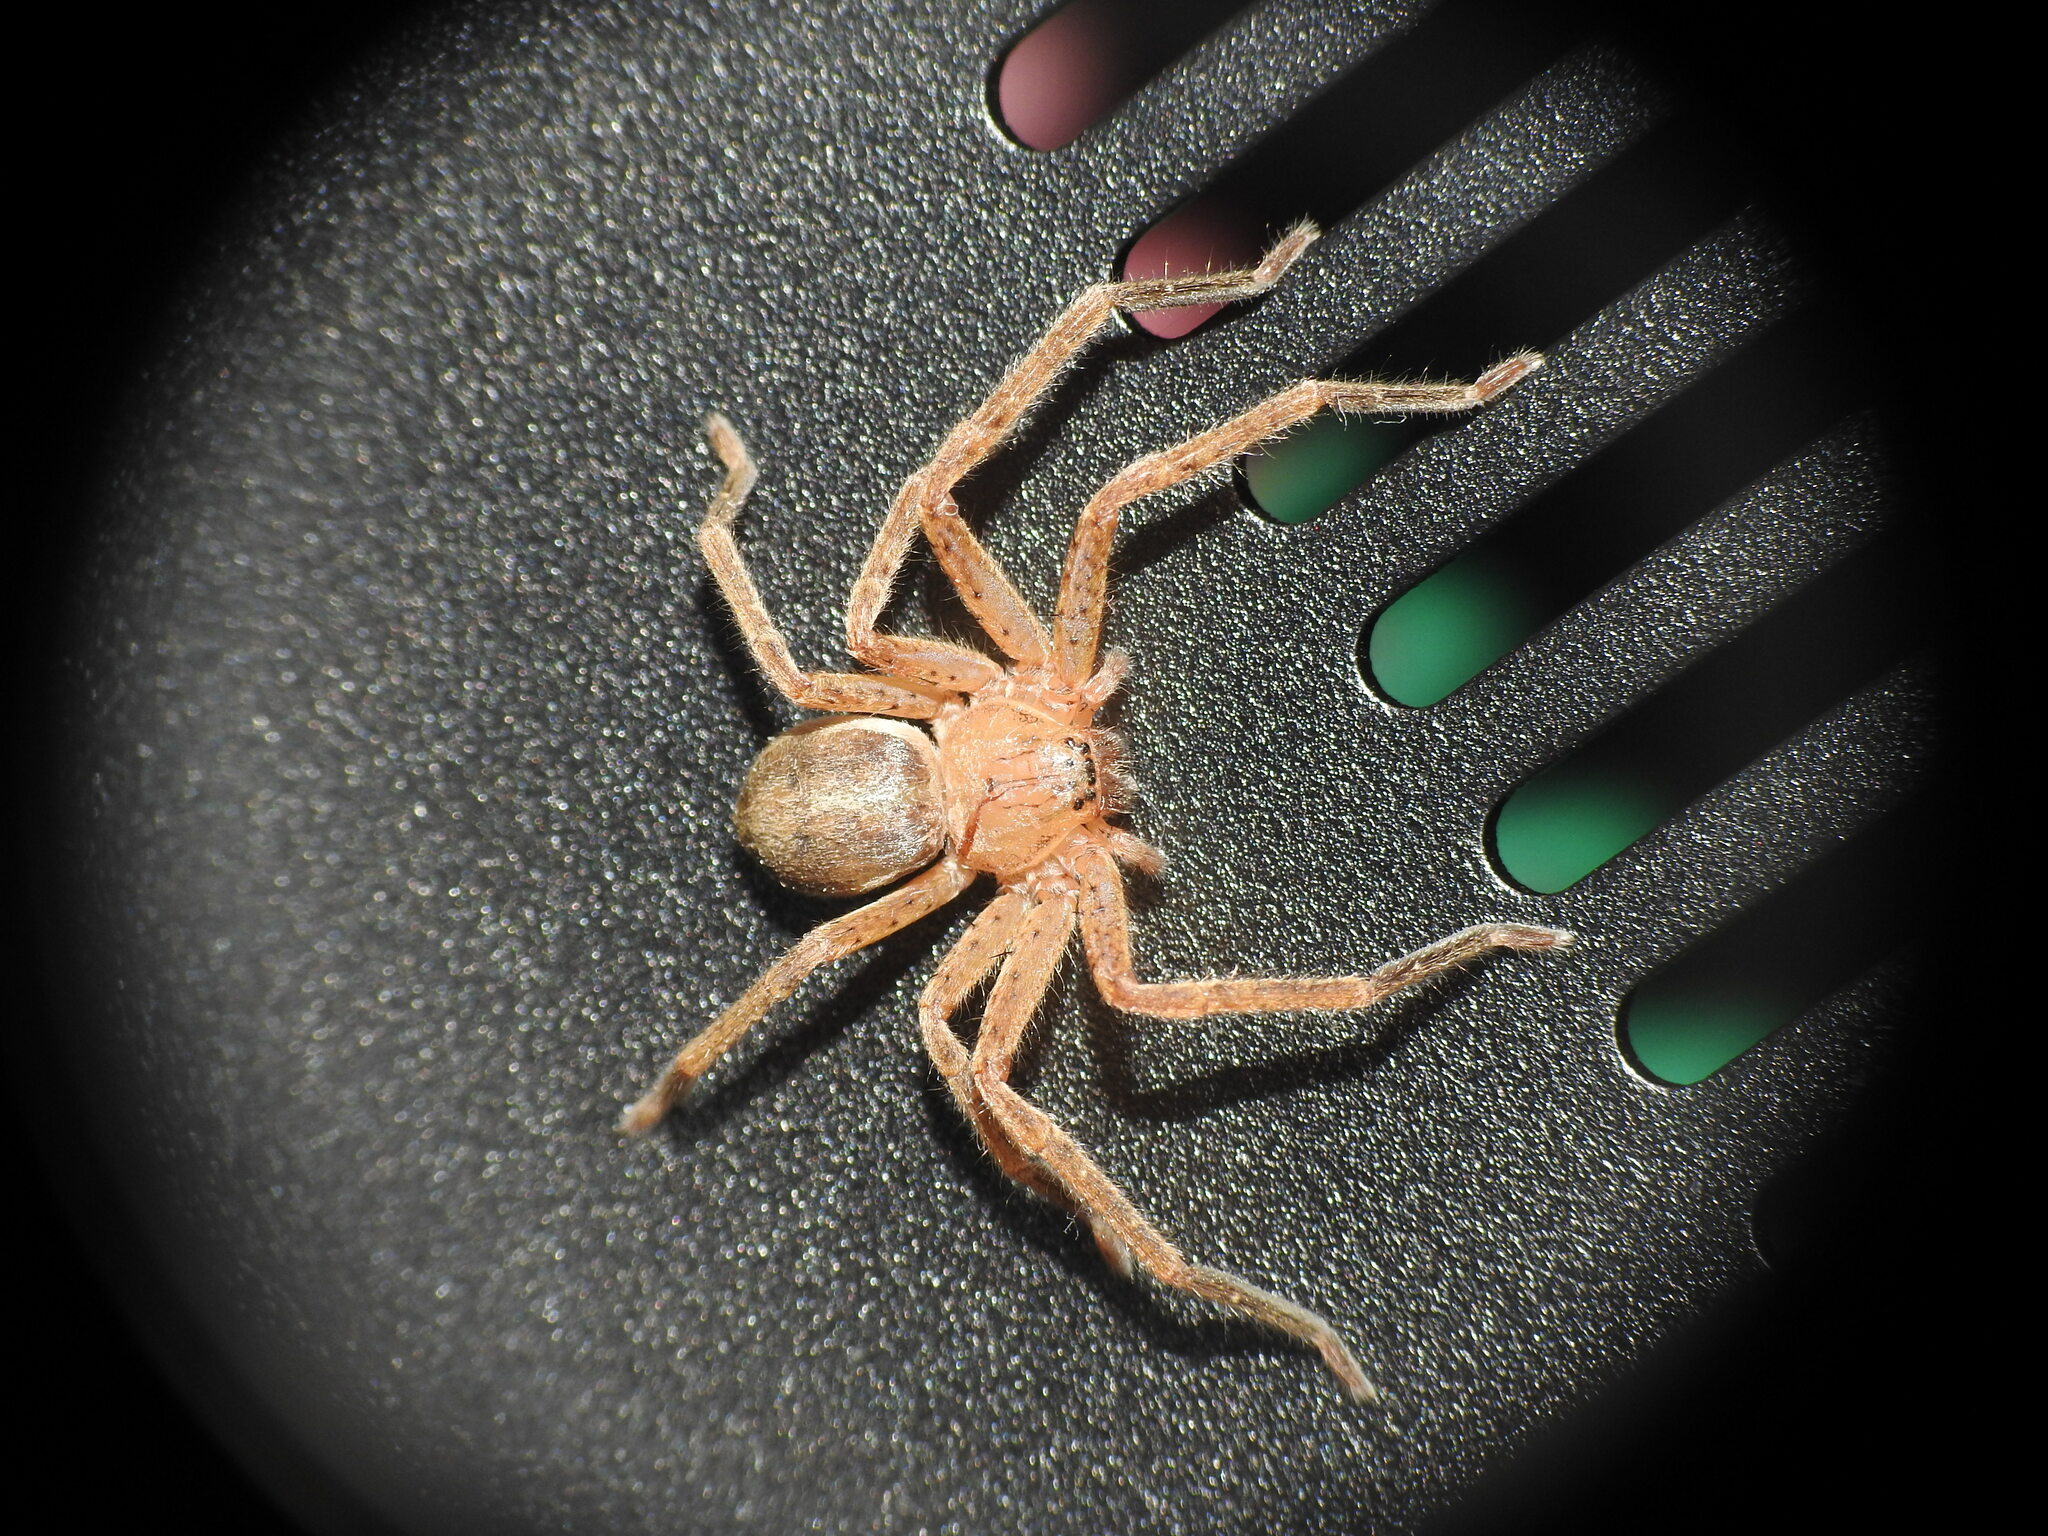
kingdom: Animalia
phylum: Arthropoda
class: Arachnida
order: Araneae
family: Sparassidae
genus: Olios
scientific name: Olios argelasius
